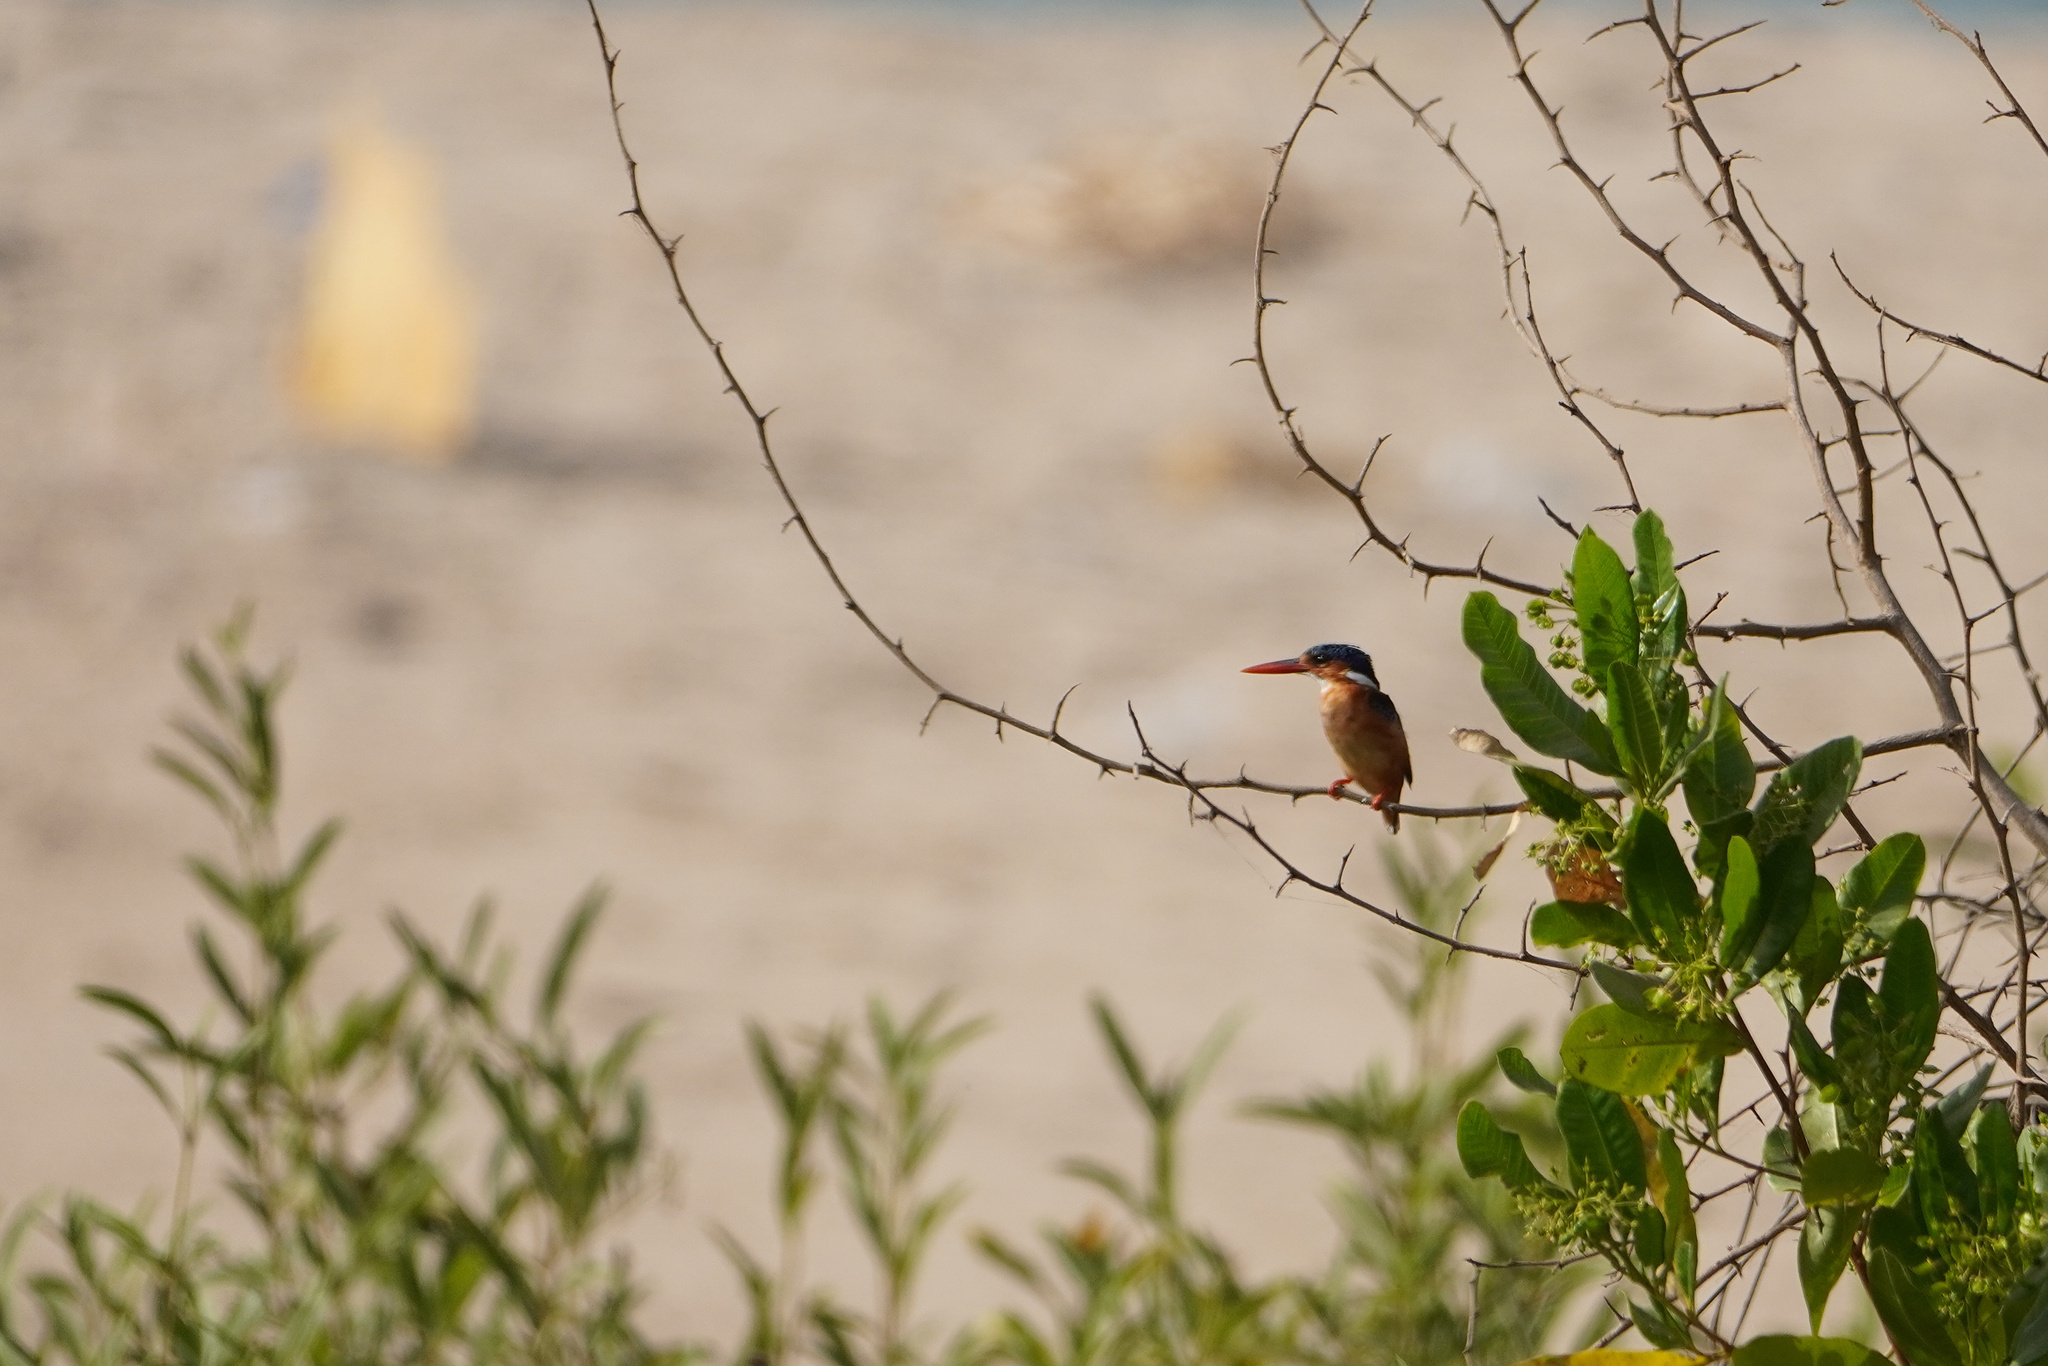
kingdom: Animalia
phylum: Chordata
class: Aves
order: Coraciiformes
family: Alcedinidae
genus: Corythornis
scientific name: Corythornis cristatus
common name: Malachite kingfisher
